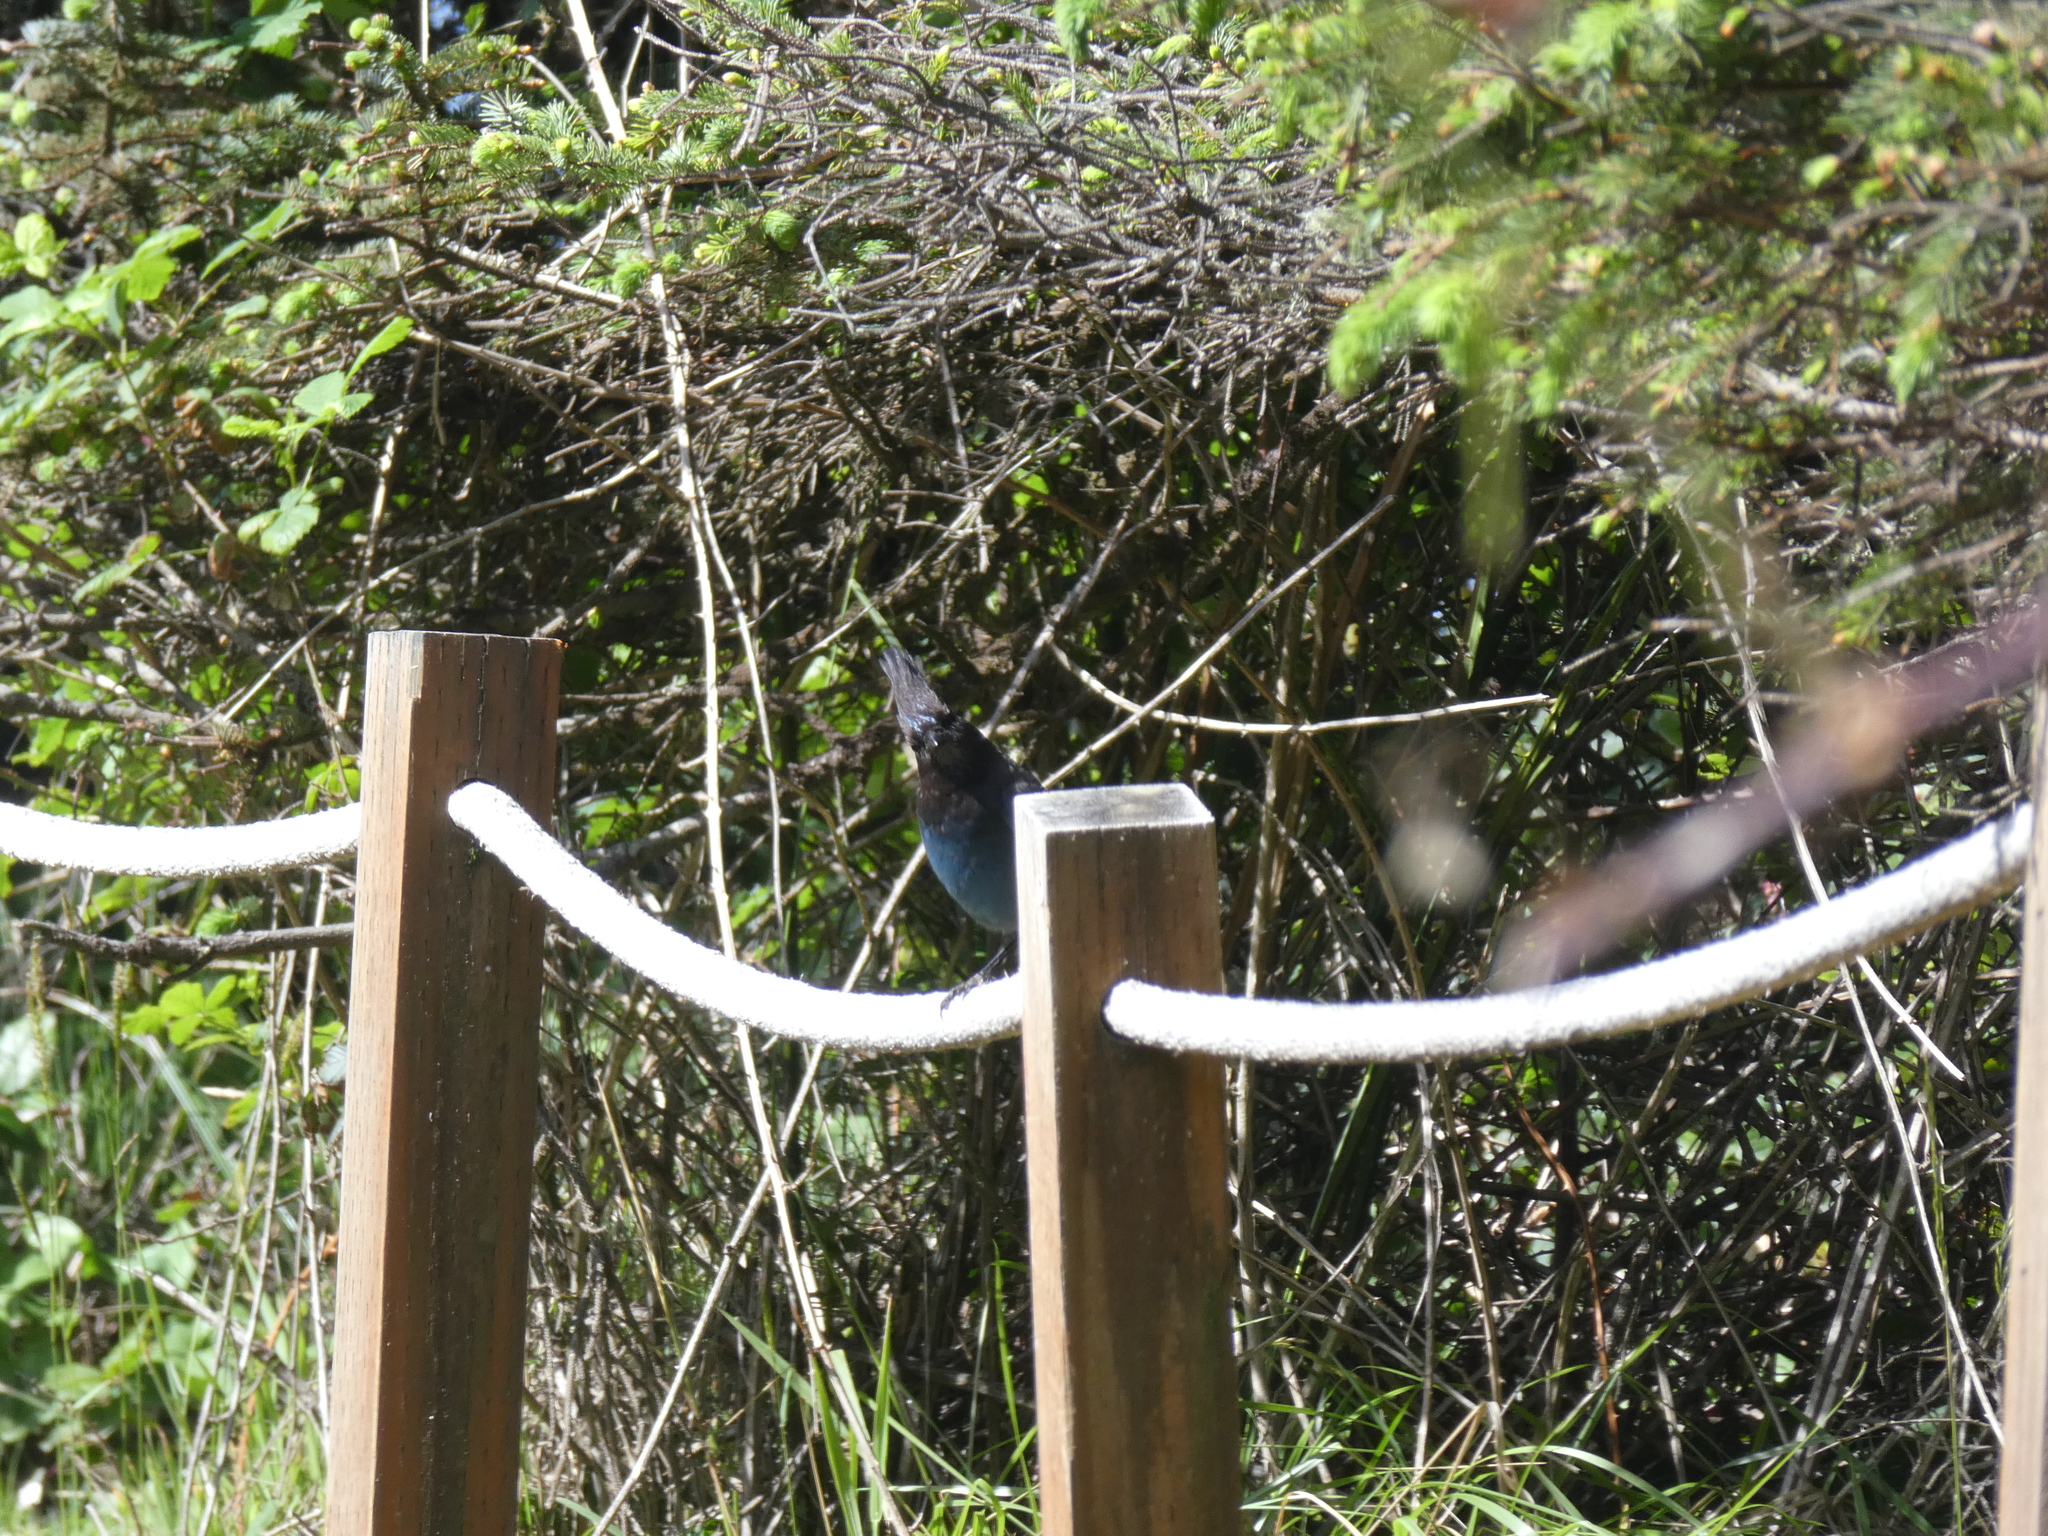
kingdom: Animalia
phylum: Chordata
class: Aves
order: Passeriformes
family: Corvidae
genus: Cyanocitta
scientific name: Cyanocitta stelleri
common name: Steller's jay
